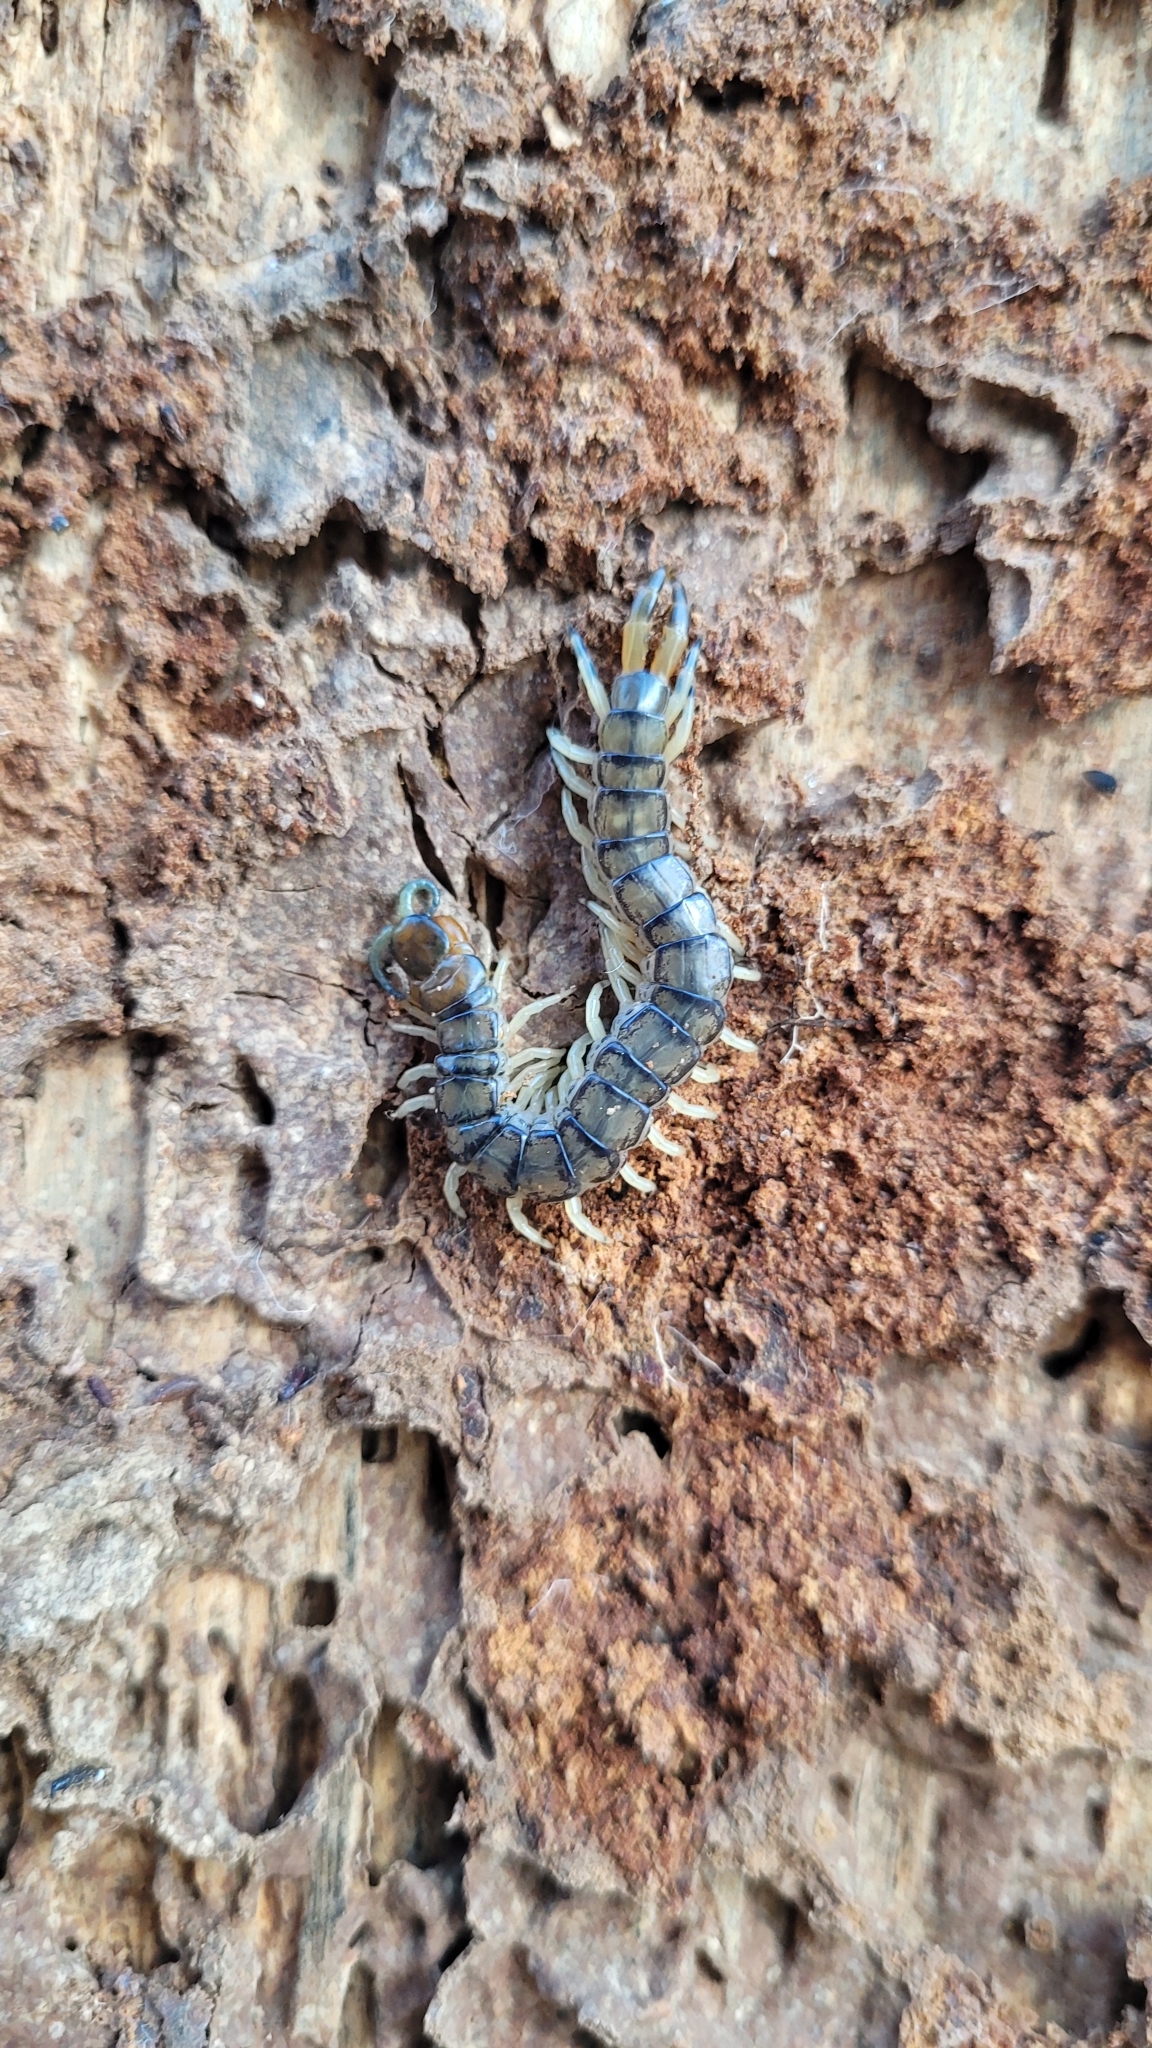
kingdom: Animalia
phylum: Arthropoda
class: Chilopoda
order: Scolopendromorpha
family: Scolopendridae
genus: Hemiscolopendra
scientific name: Hemiscolopendra marginata
